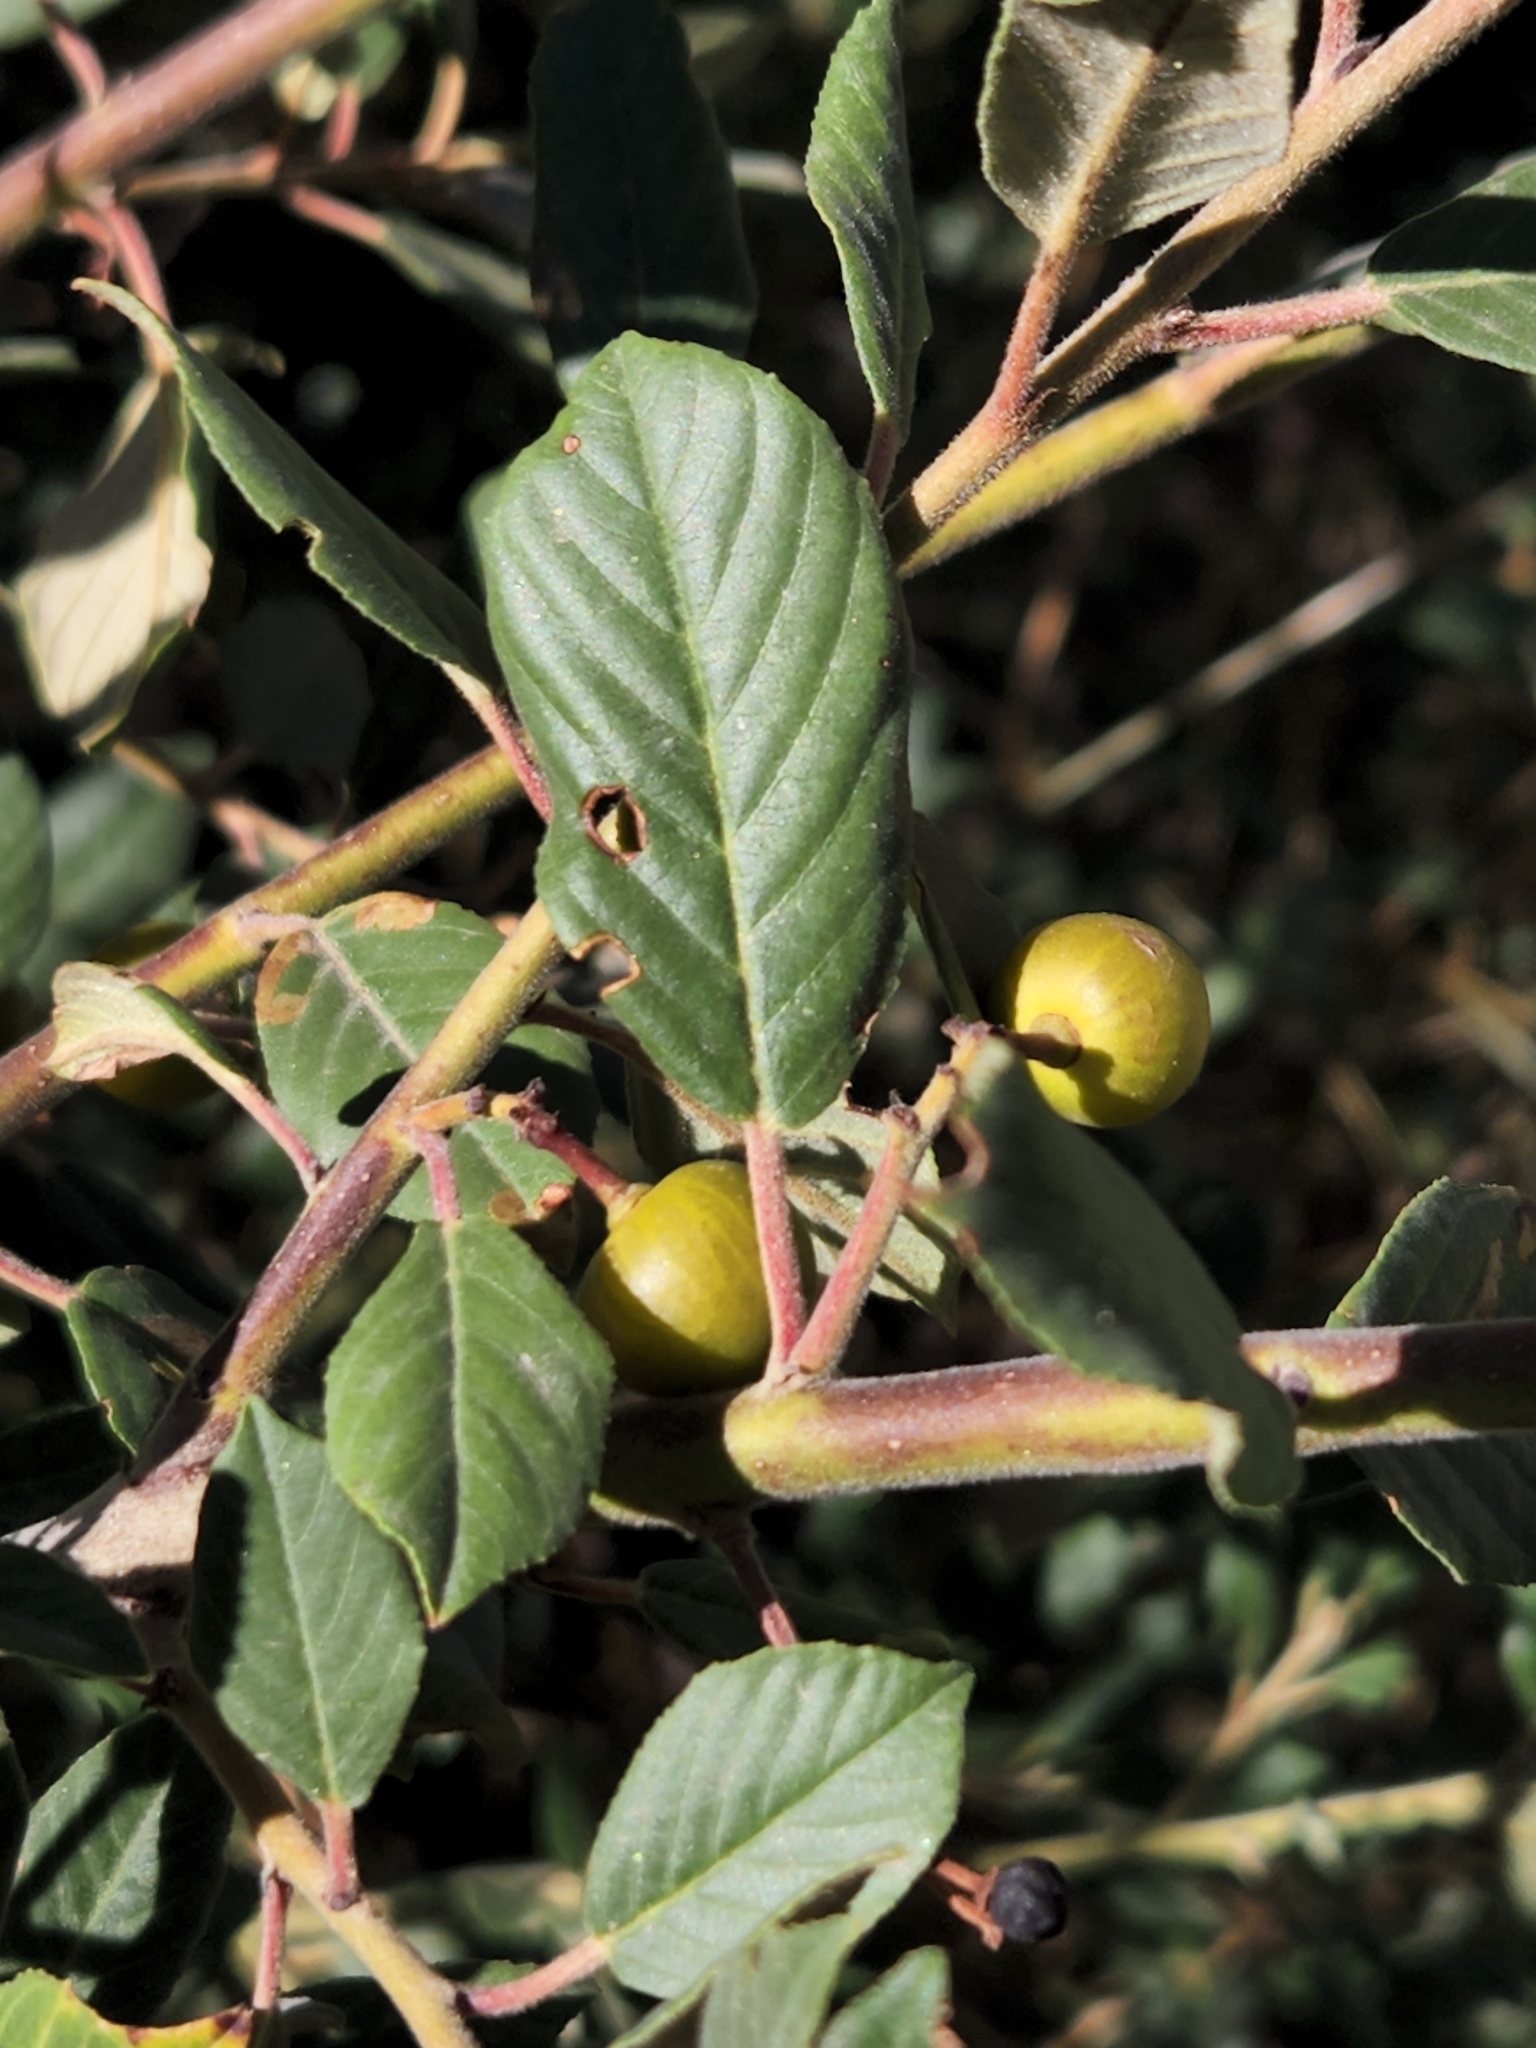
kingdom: Plantae
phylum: Tracheophyta
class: Magnoliopsida
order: Rosales
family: Rhamnaceae
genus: Frangula
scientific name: Frangula californica
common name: California buckthorn
